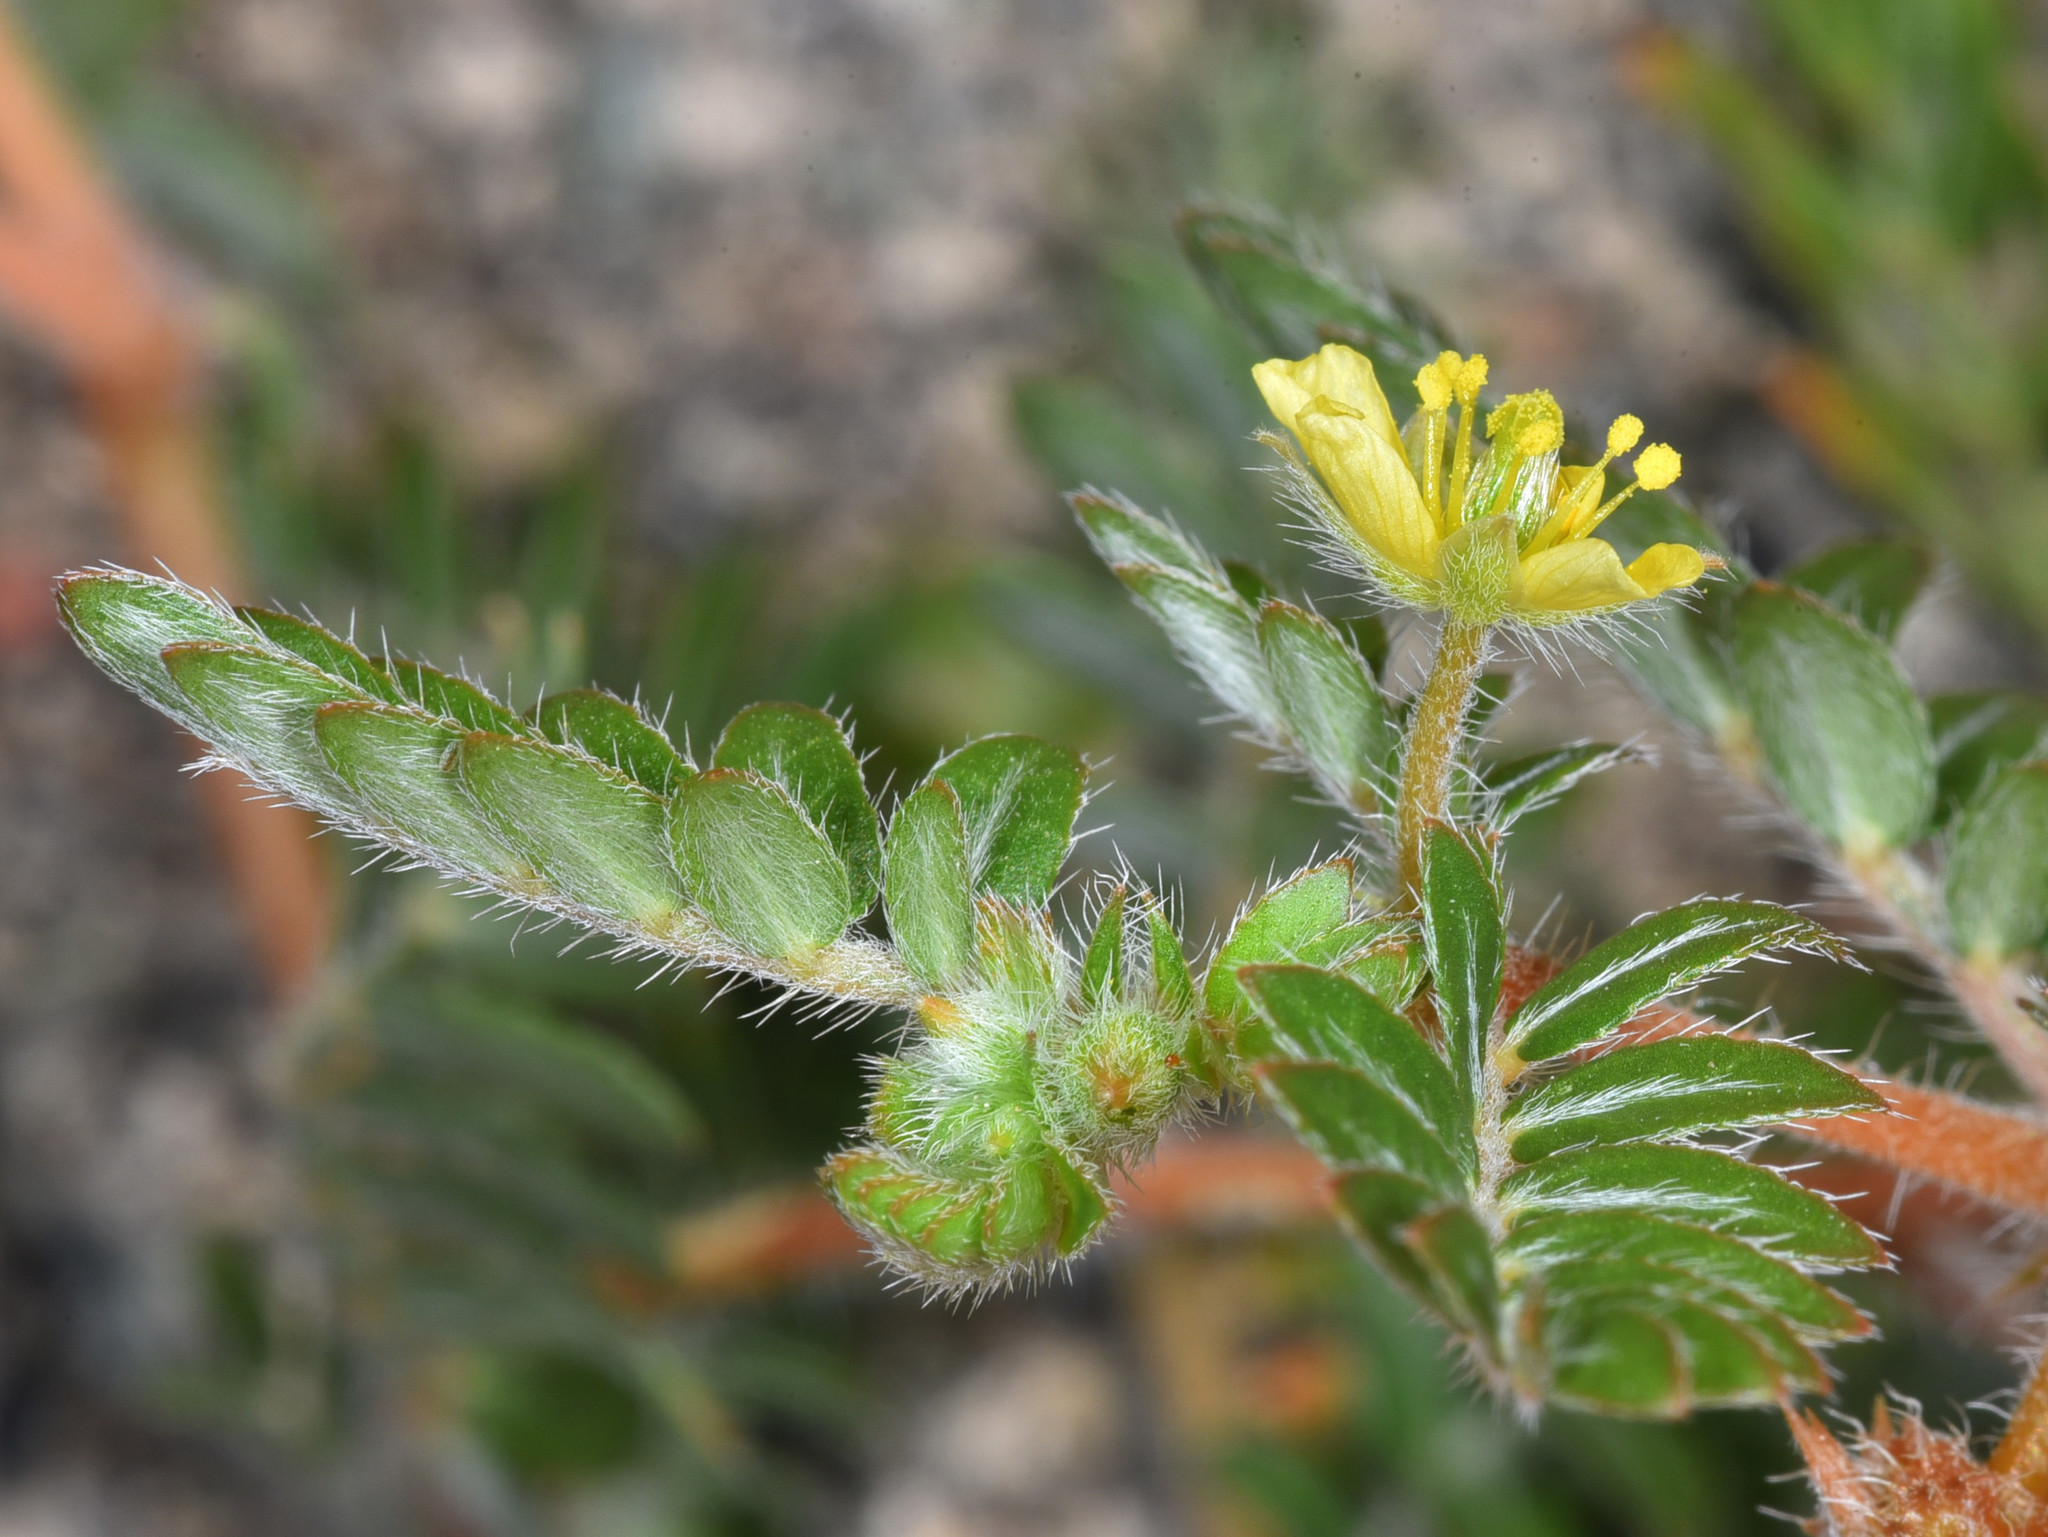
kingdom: Plantae
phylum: Tracheophyta
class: Magnoliopsida
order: Zygophyllales
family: Zygophyllaceae
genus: Tribulus
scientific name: Tribulus terrestris
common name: Puncturevine
